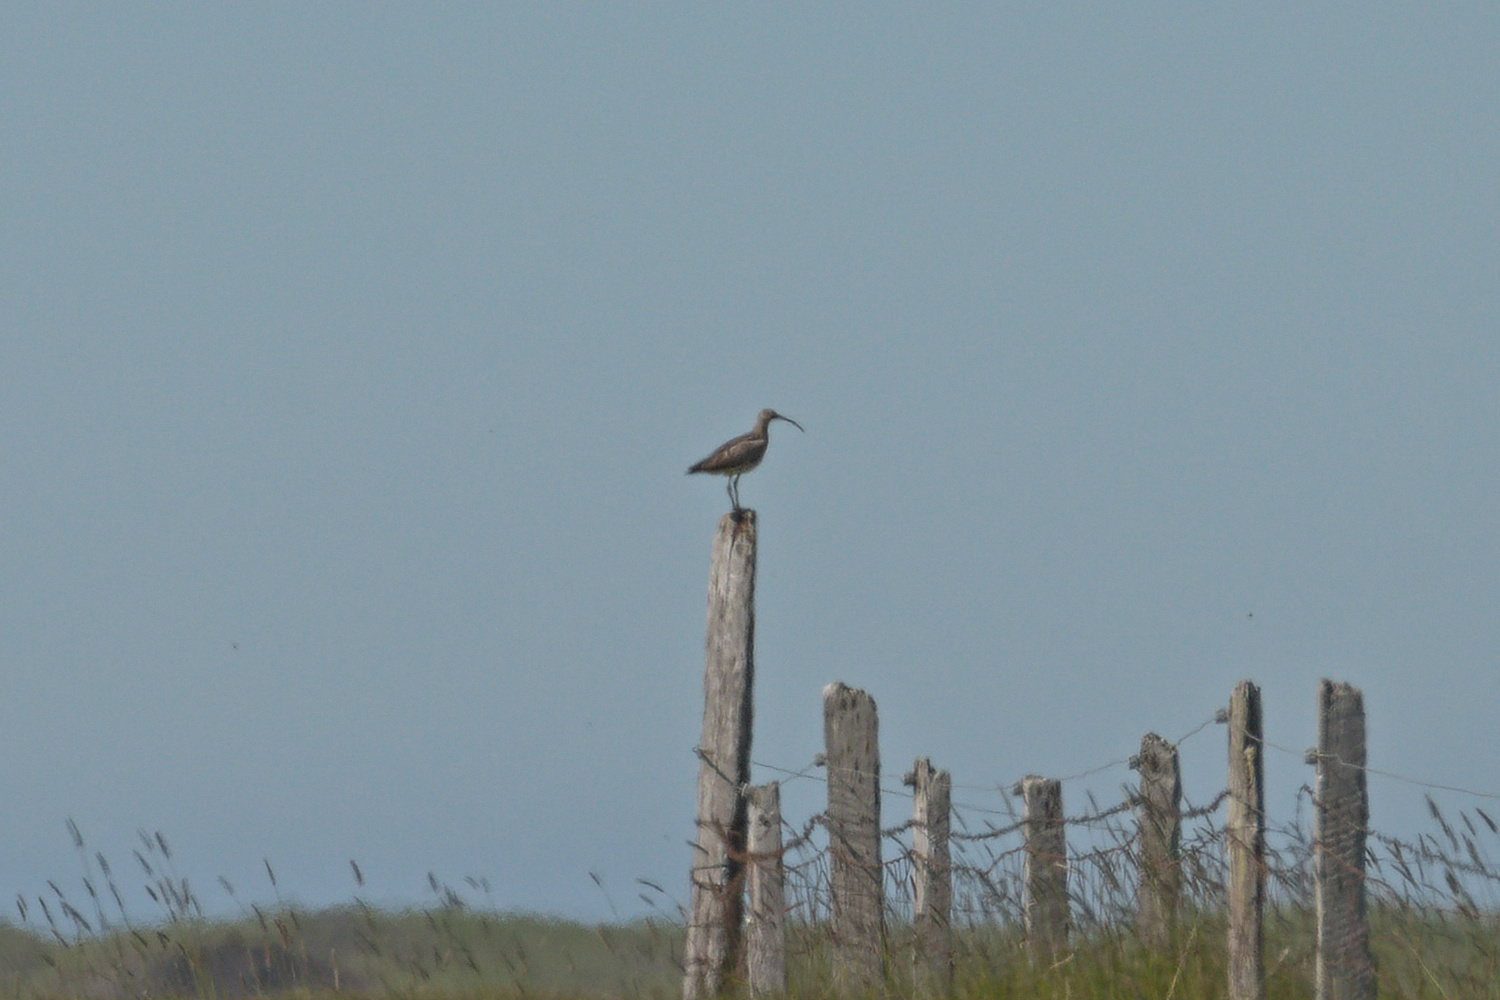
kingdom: Animalia
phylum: Chordata
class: Aves
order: Charadriiformes
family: Scolopacidae
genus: Numenius
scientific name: Numenius phaeopus
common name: Whimbrel
